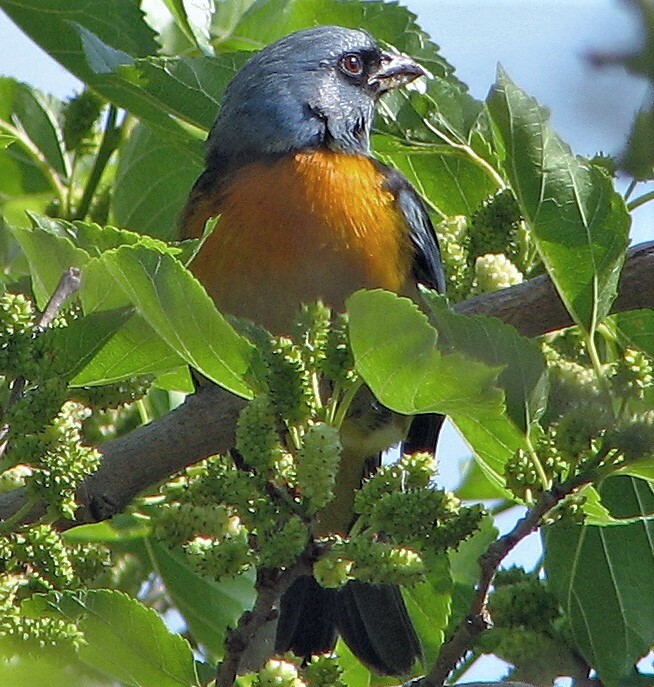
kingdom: Animalia
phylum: Chordata
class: Aves
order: Passeriformes
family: Thraupidae
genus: Rauenia
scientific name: Rauenia bonariensis
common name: Blue-and-yellow tanager
